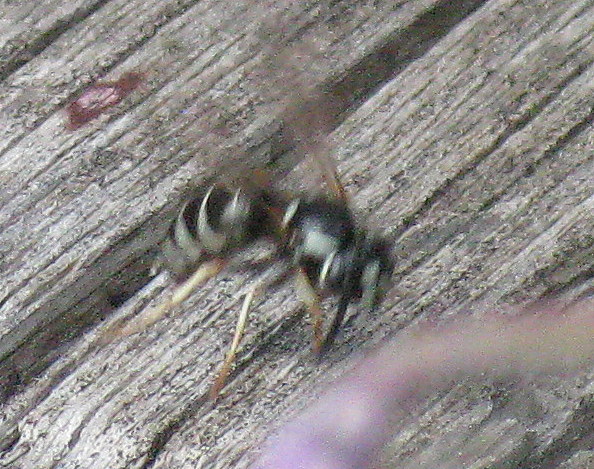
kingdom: Animalia
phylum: Arthropoda
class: Insecta
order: Hymenoptera
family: Vespidae
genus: Vespula
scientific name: Vespula consobrina
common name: Blackjacket
